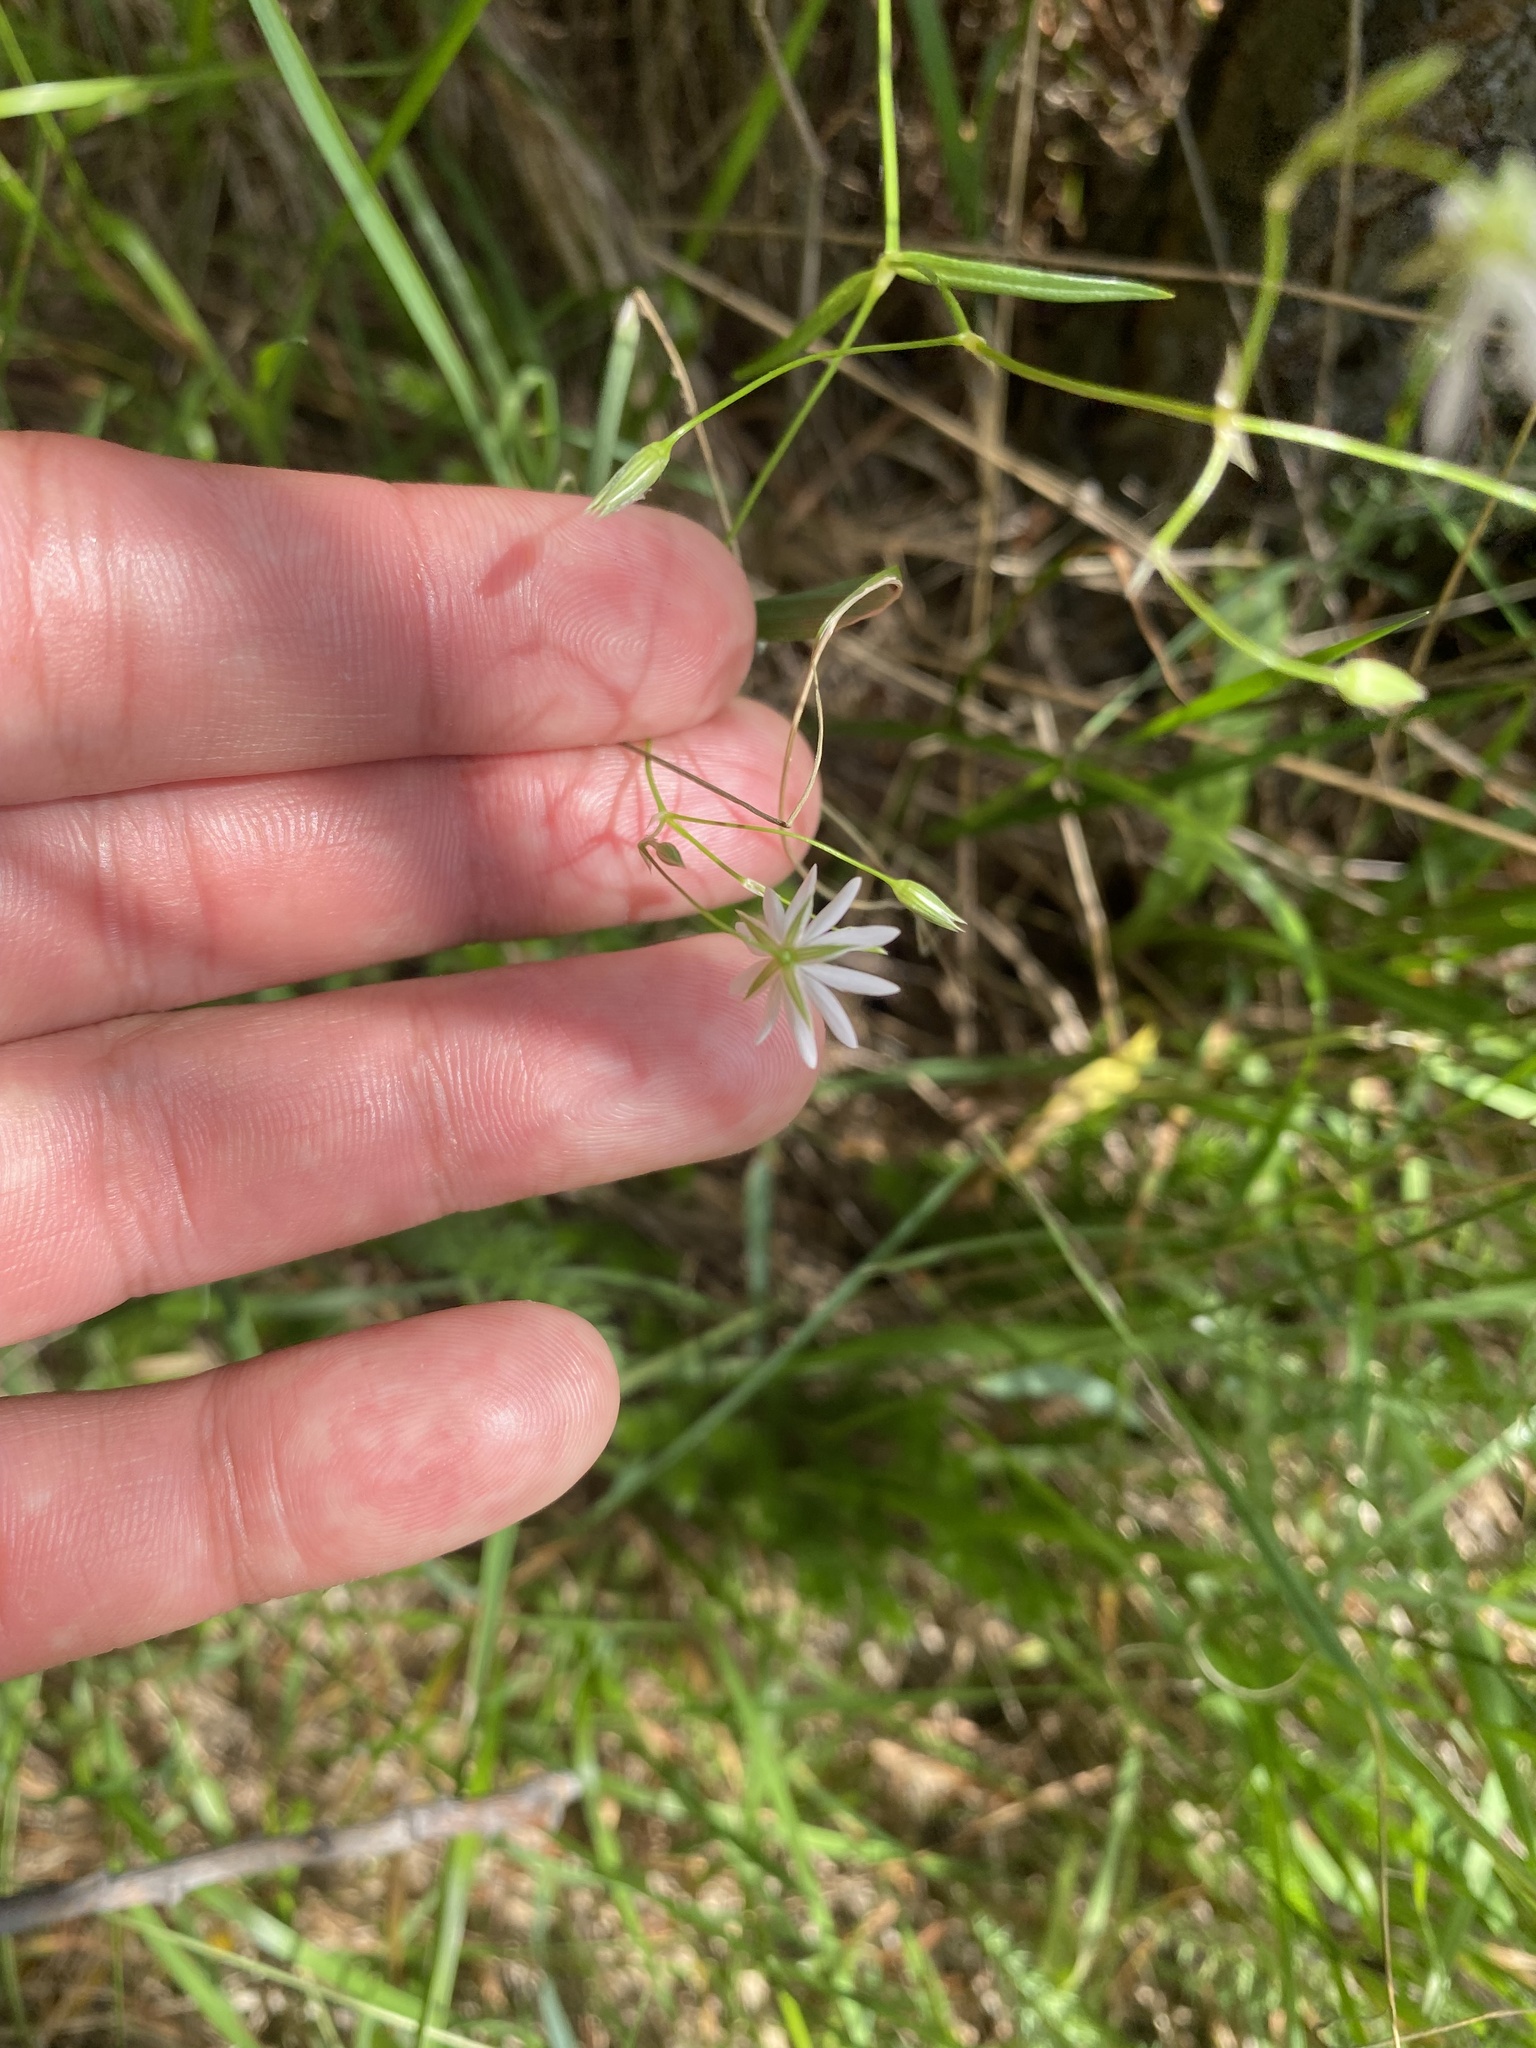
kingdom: Plantae
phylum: Tracheophyta
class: Magnoliopsida
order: Caryophyllales
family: Caryophyllaceae
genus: Stellaria
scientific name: Stellaria graminea
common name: Grass-like starwort
